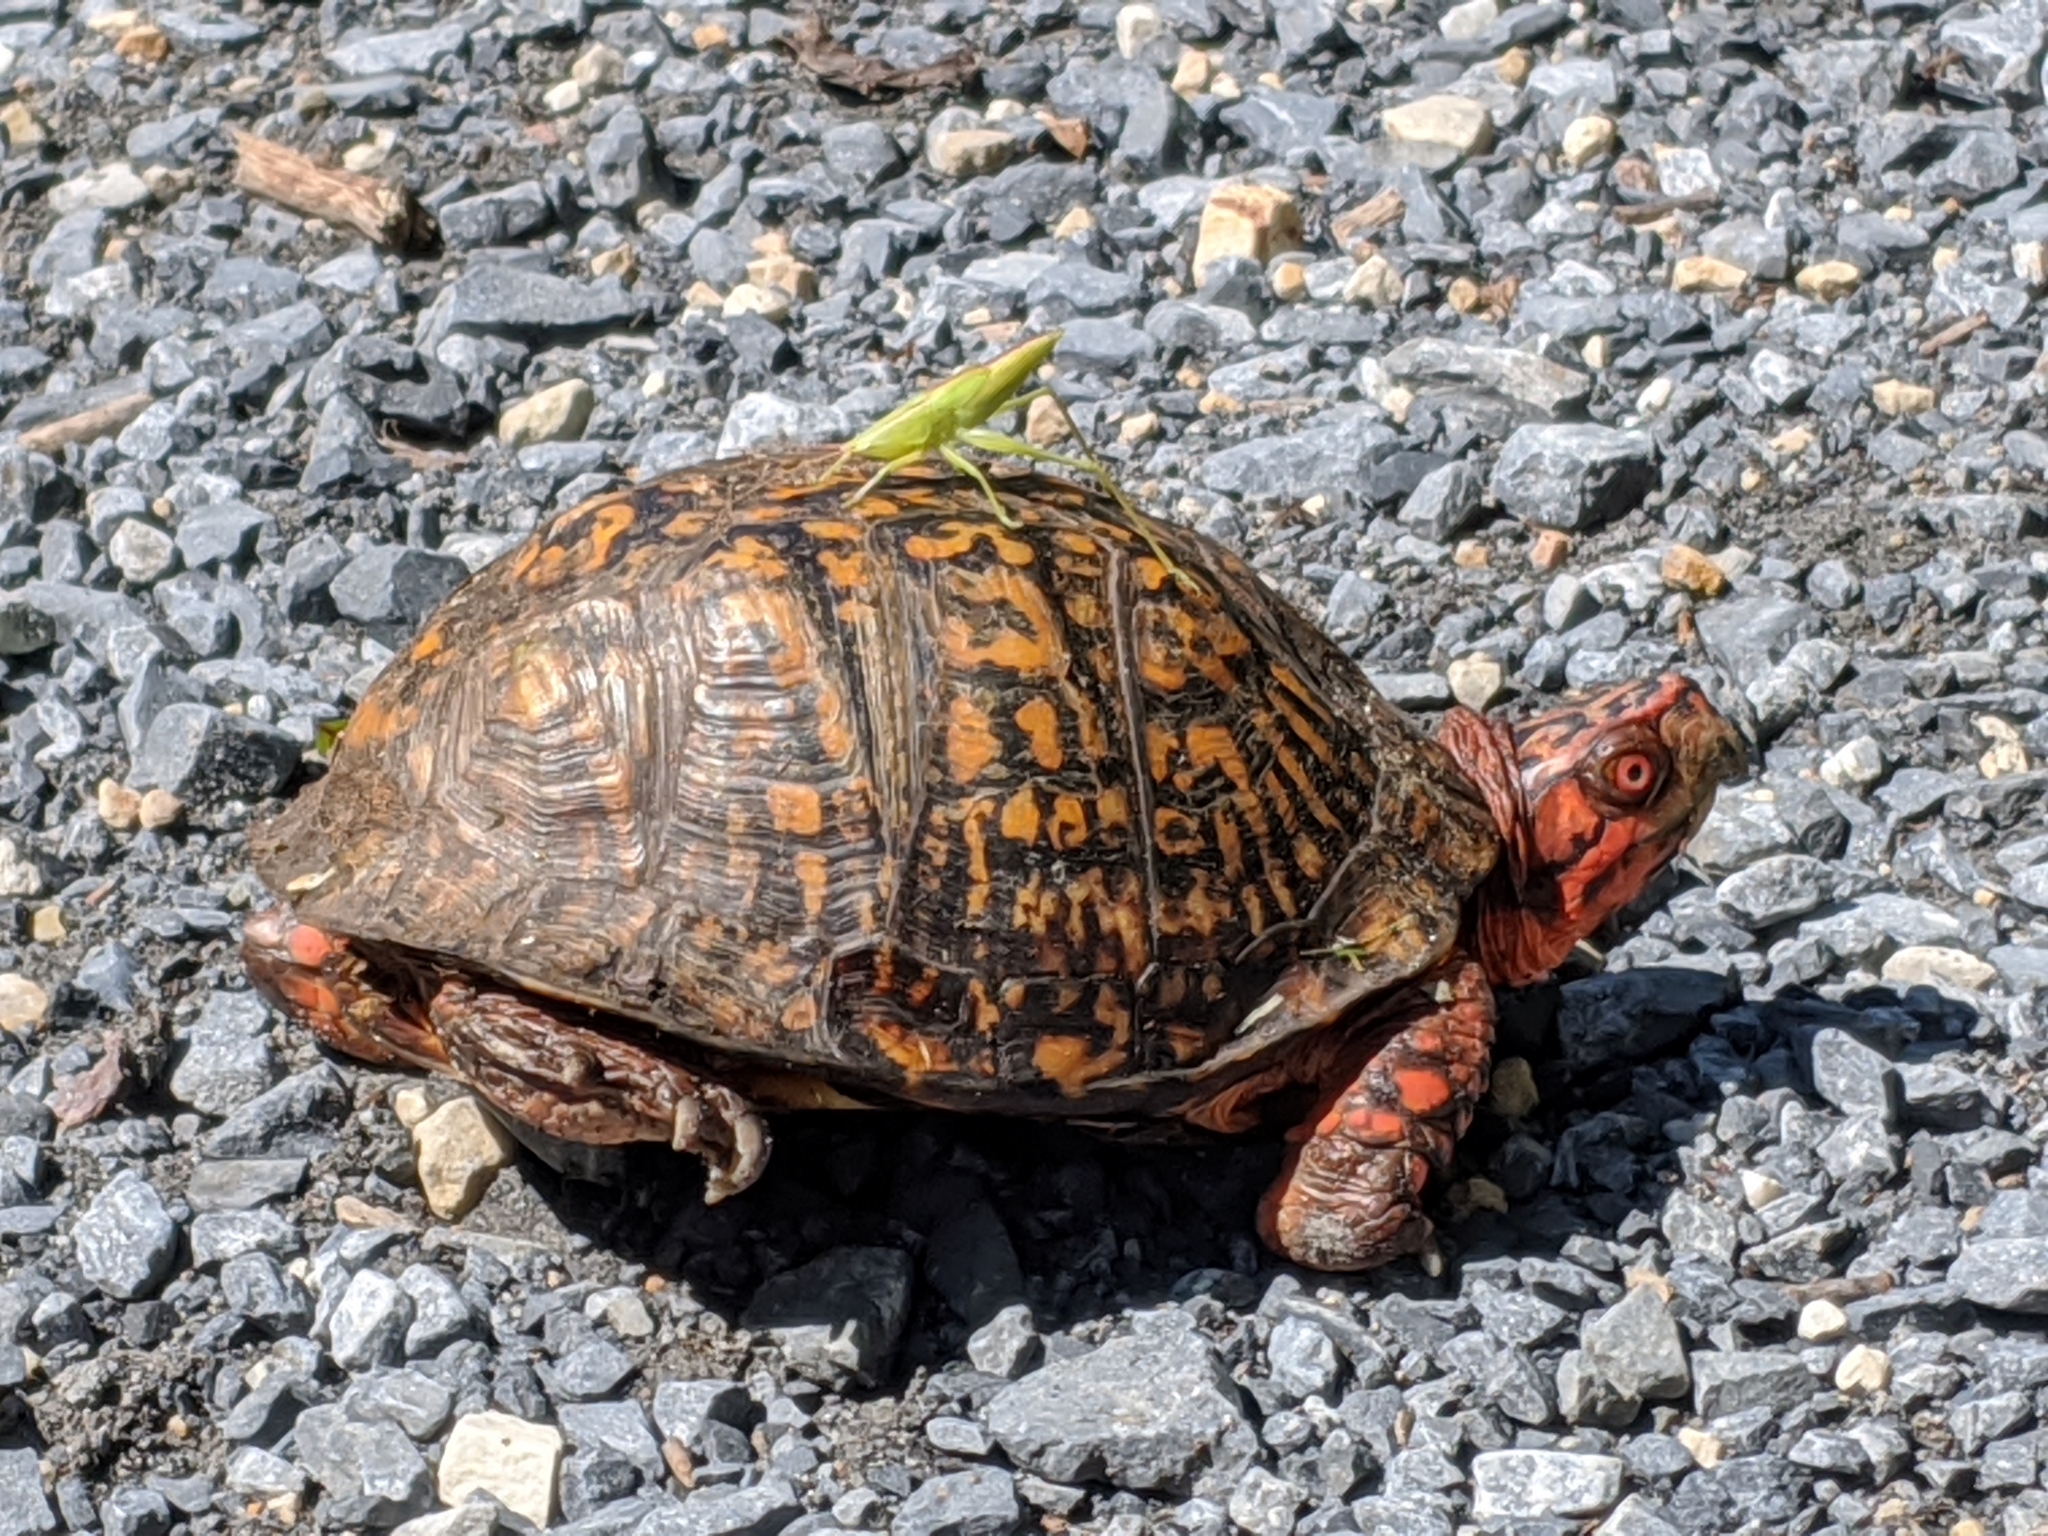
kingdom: Animalia
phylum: Chordata
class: Testudines
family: Emydidae
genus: Terrapene
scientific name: Terrapene carolina
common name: Common box turtle
